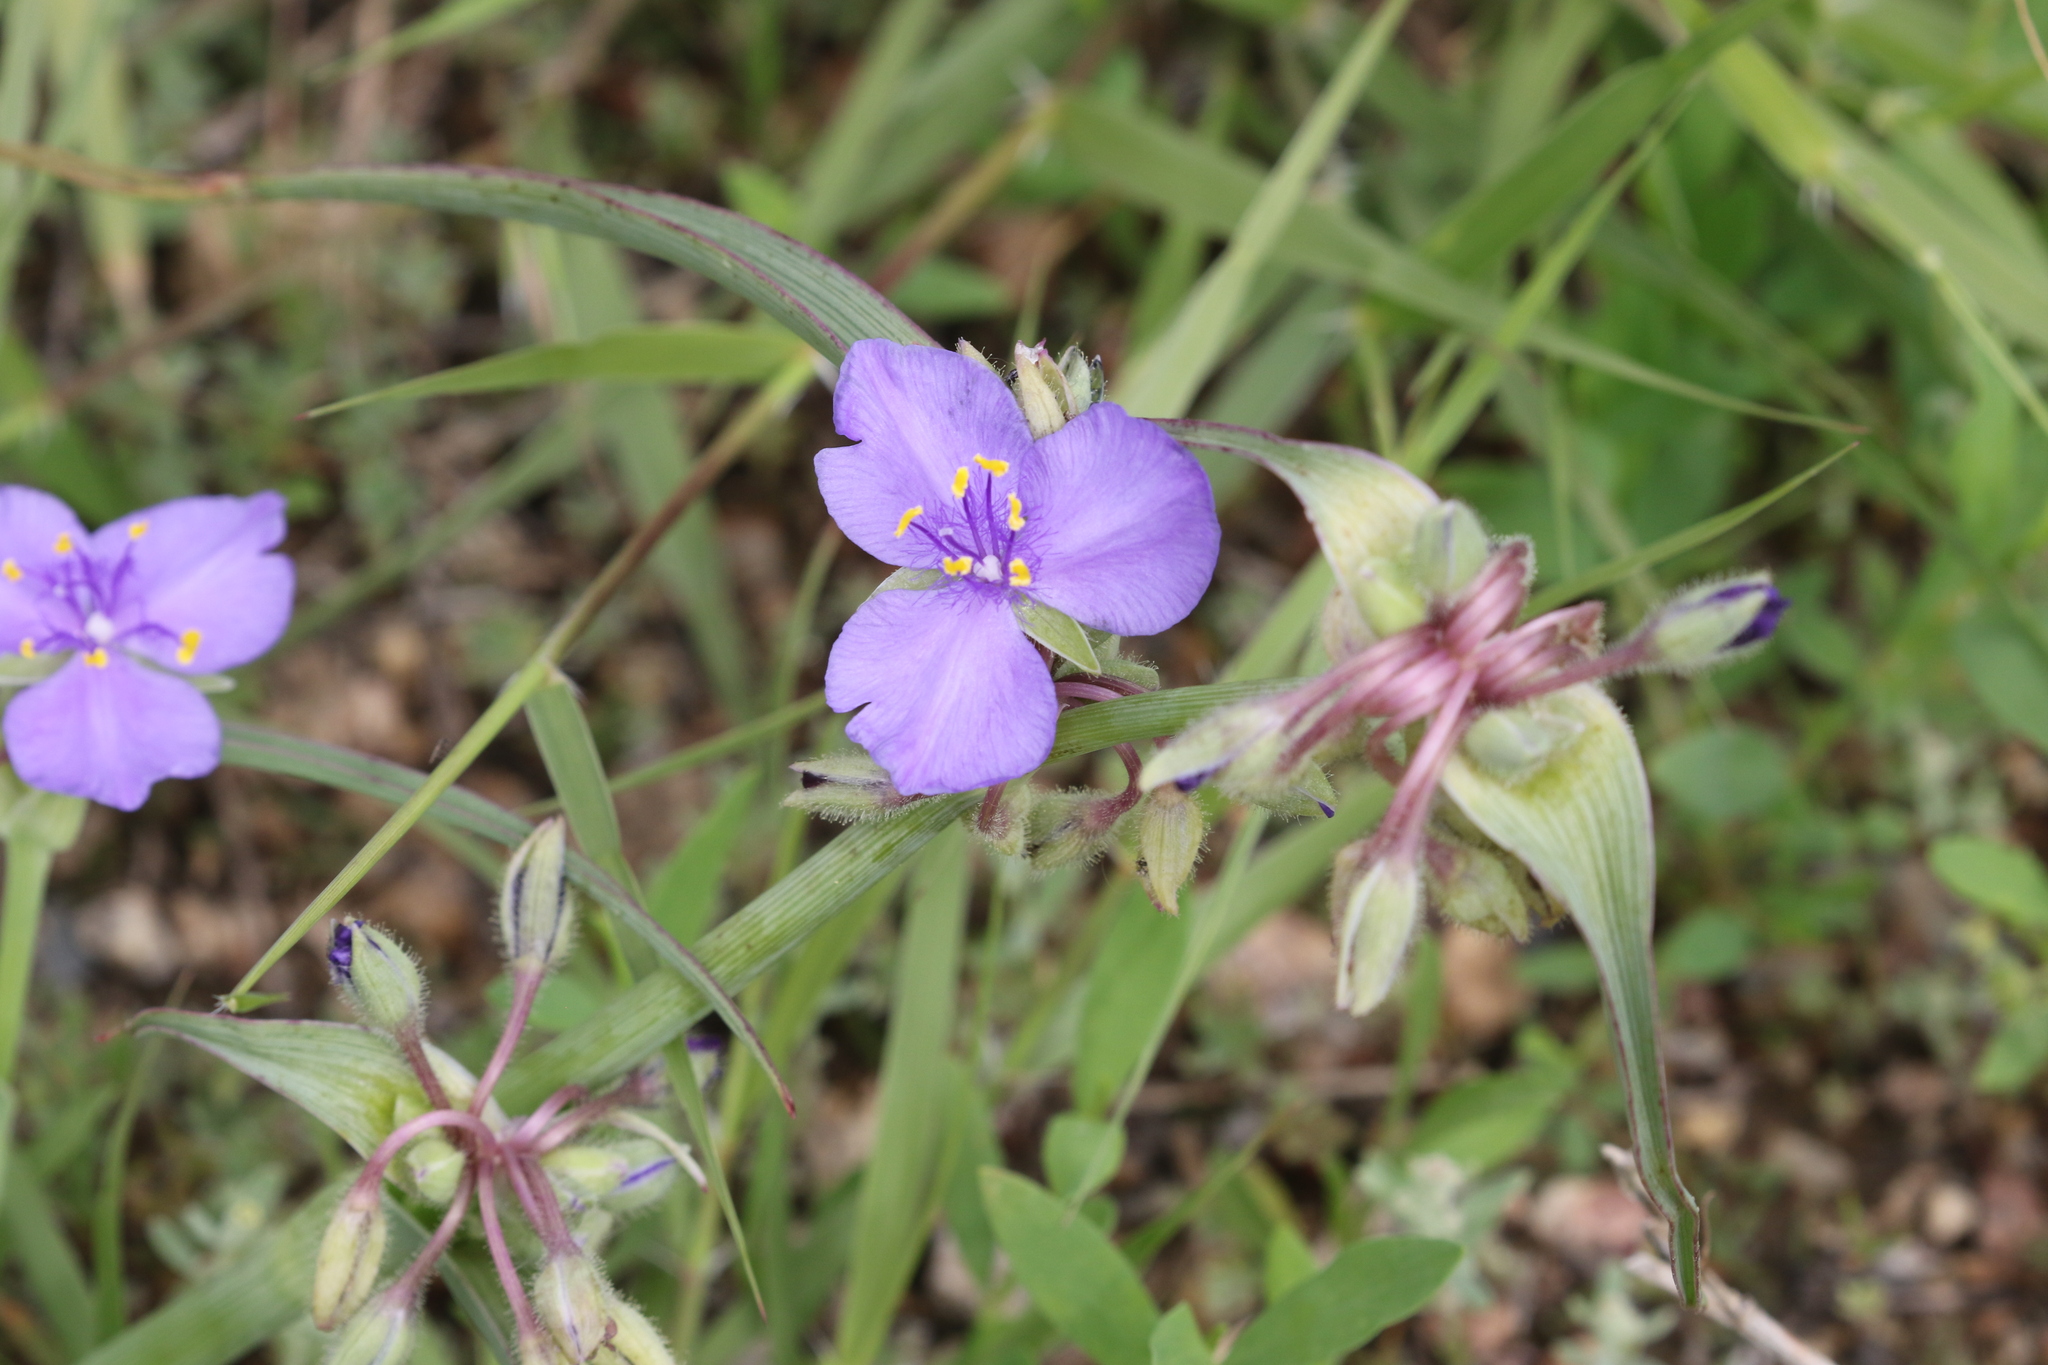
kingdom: Plantae
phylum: Tracheophyta
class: Liliopsida
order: Commelinales
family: Commelinaceae
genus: Tradescantia
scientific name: Tradescantia occidentalis
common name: Prairie spiderwort
